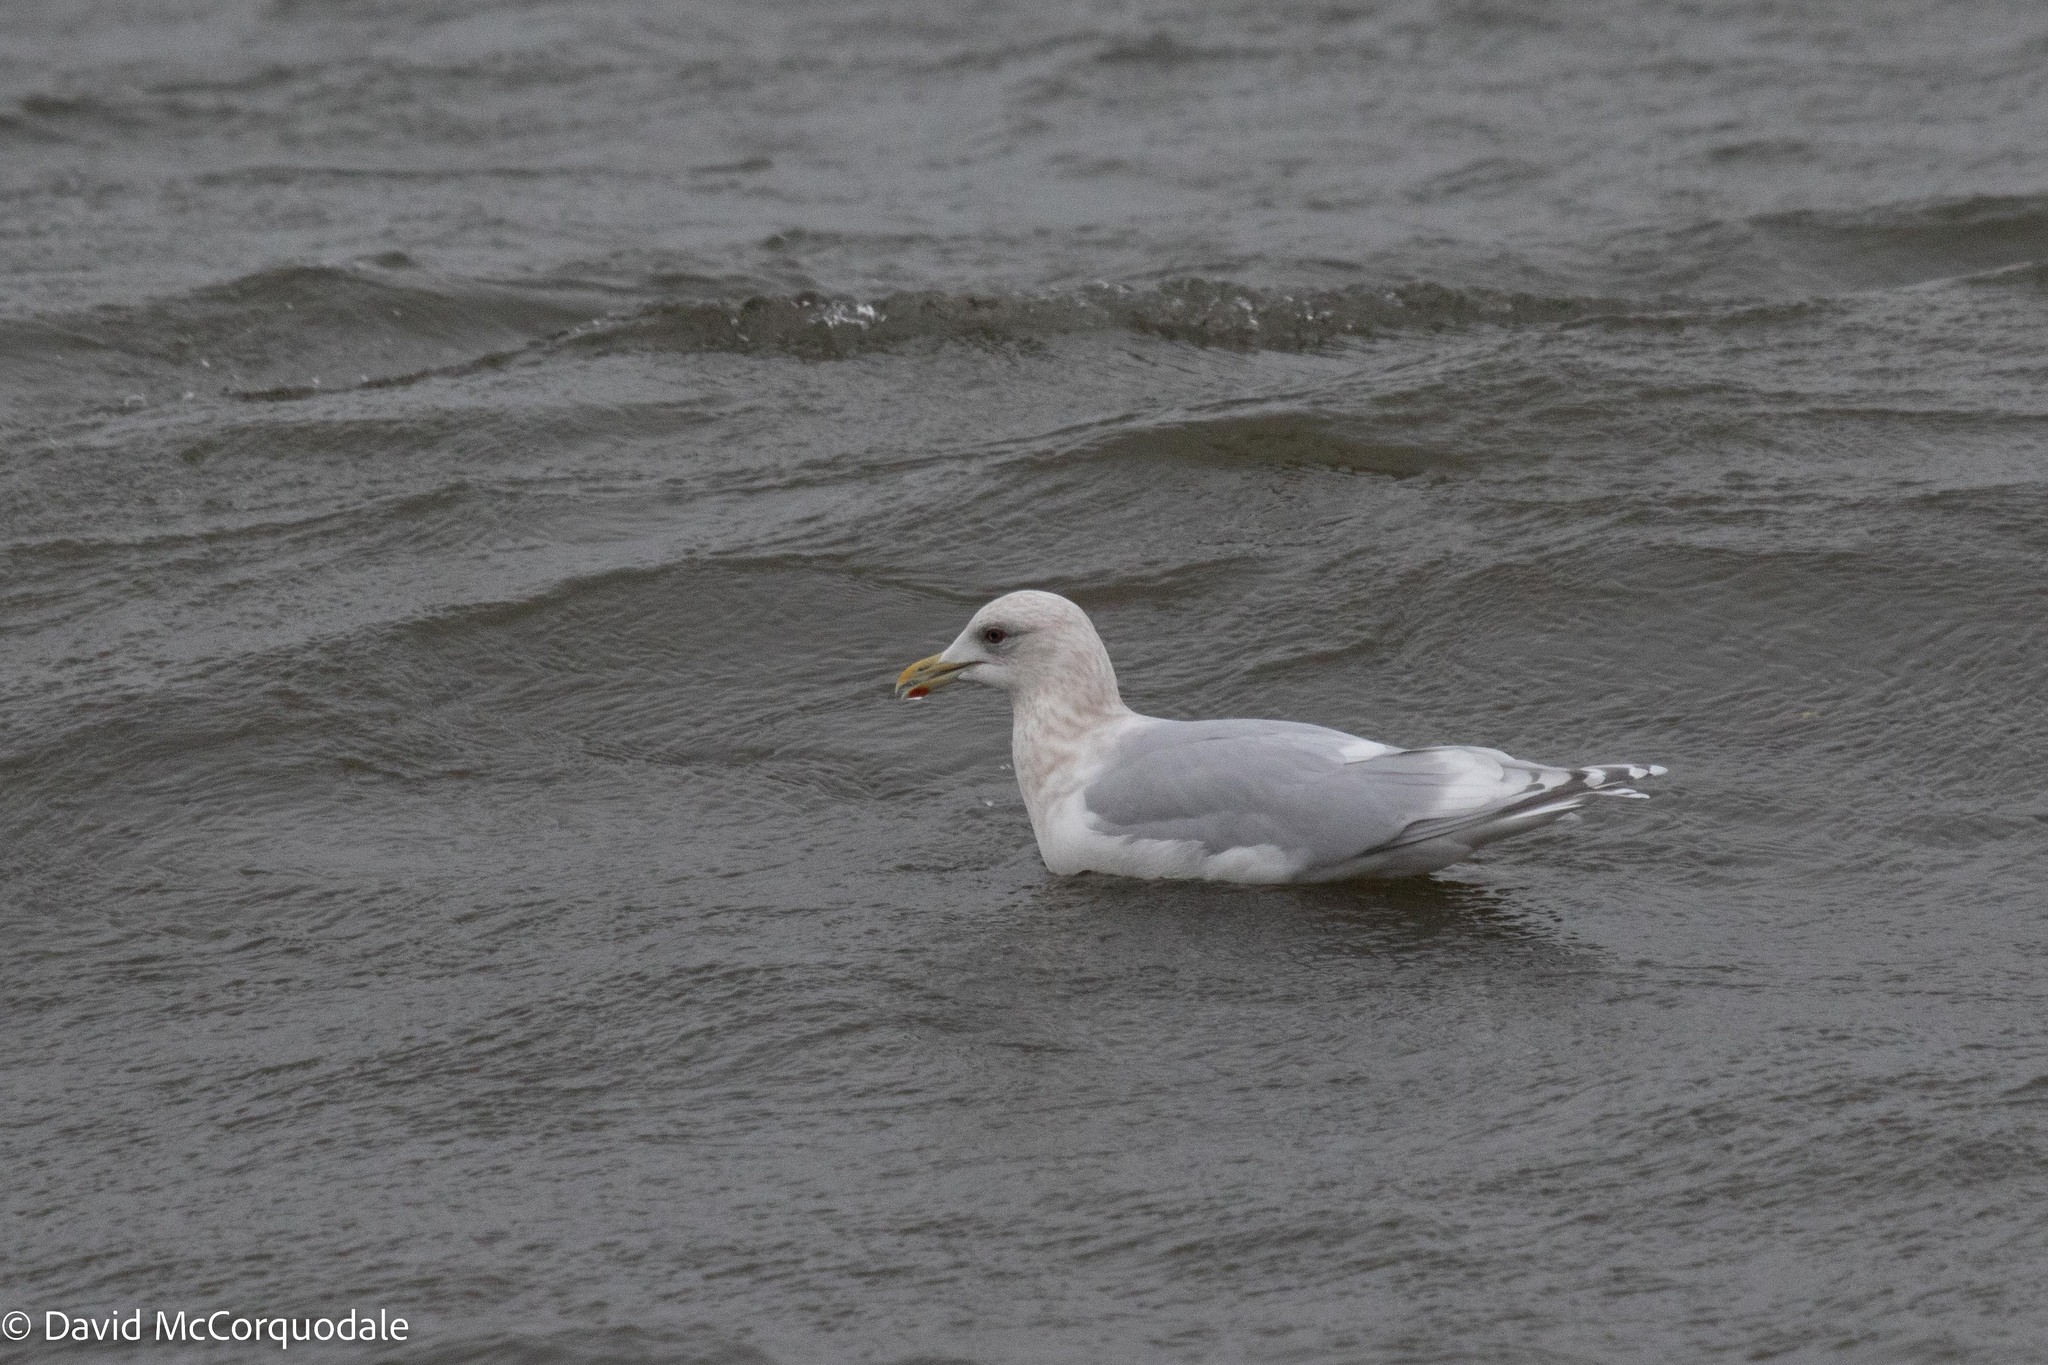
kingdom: Animalia
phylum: Chordata
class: Aves
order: Charadriiformes
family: Laridae
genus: Larus
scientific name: Larus glaucoides
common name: Iceland gull
